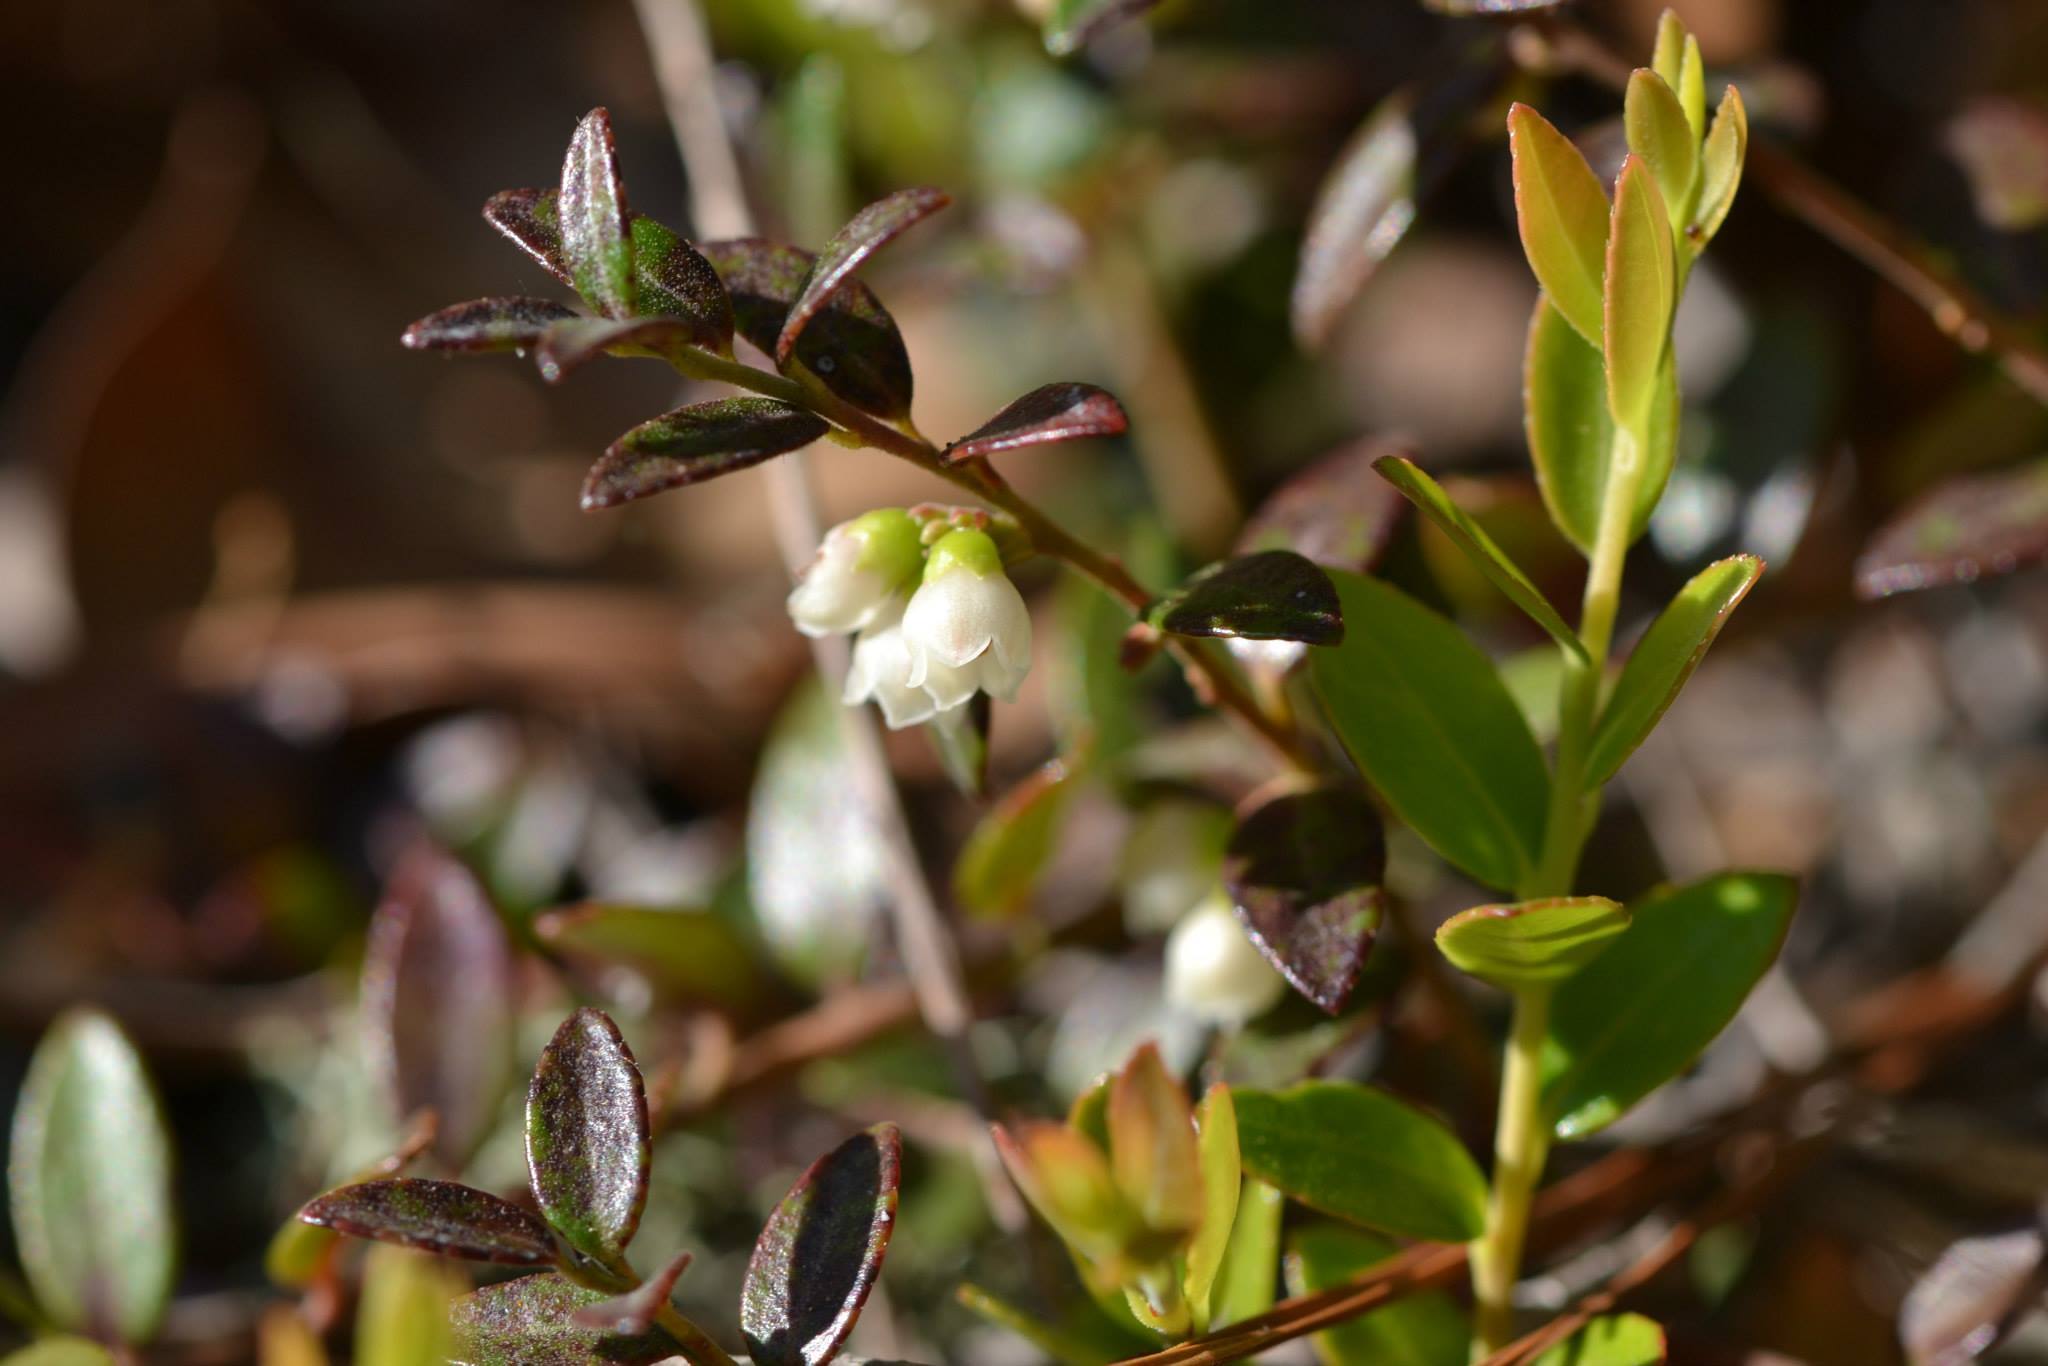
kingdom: Plantae
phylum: Tracheophyta
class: Magnoliopsida
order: Ericales
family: Ericaceae
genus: Vaccinium
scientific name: Vaccinium crassifolium
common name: Creeping blueberry
